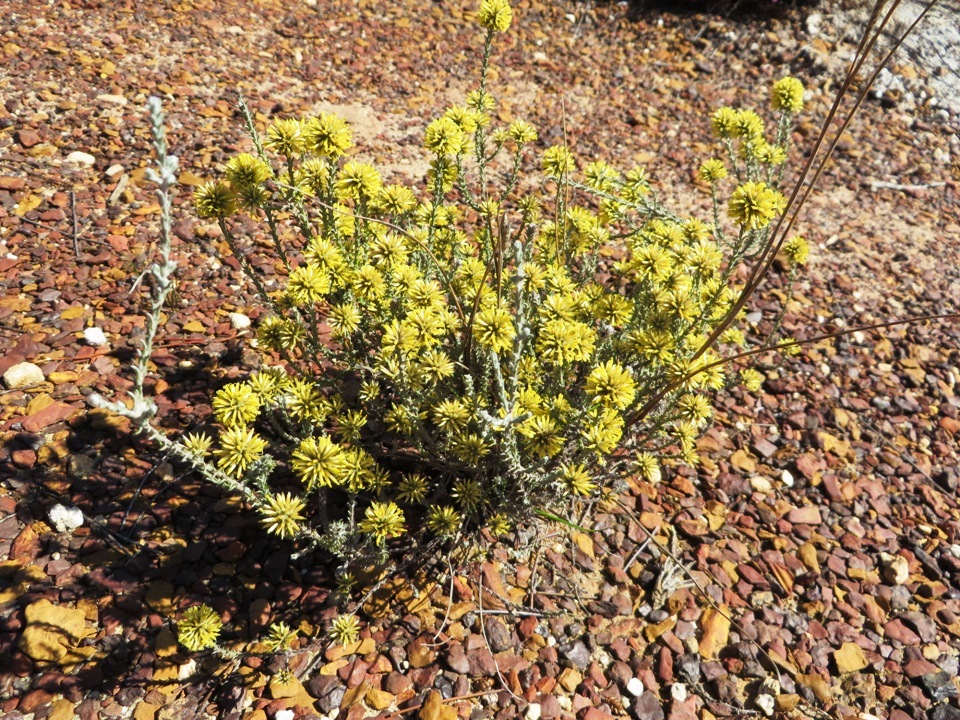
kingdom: Plantae
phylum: Tracheophyta
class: Magnoliopsida
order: Asterales
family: Asteraceae
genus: Seriphium
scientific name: Seriphium spirale
